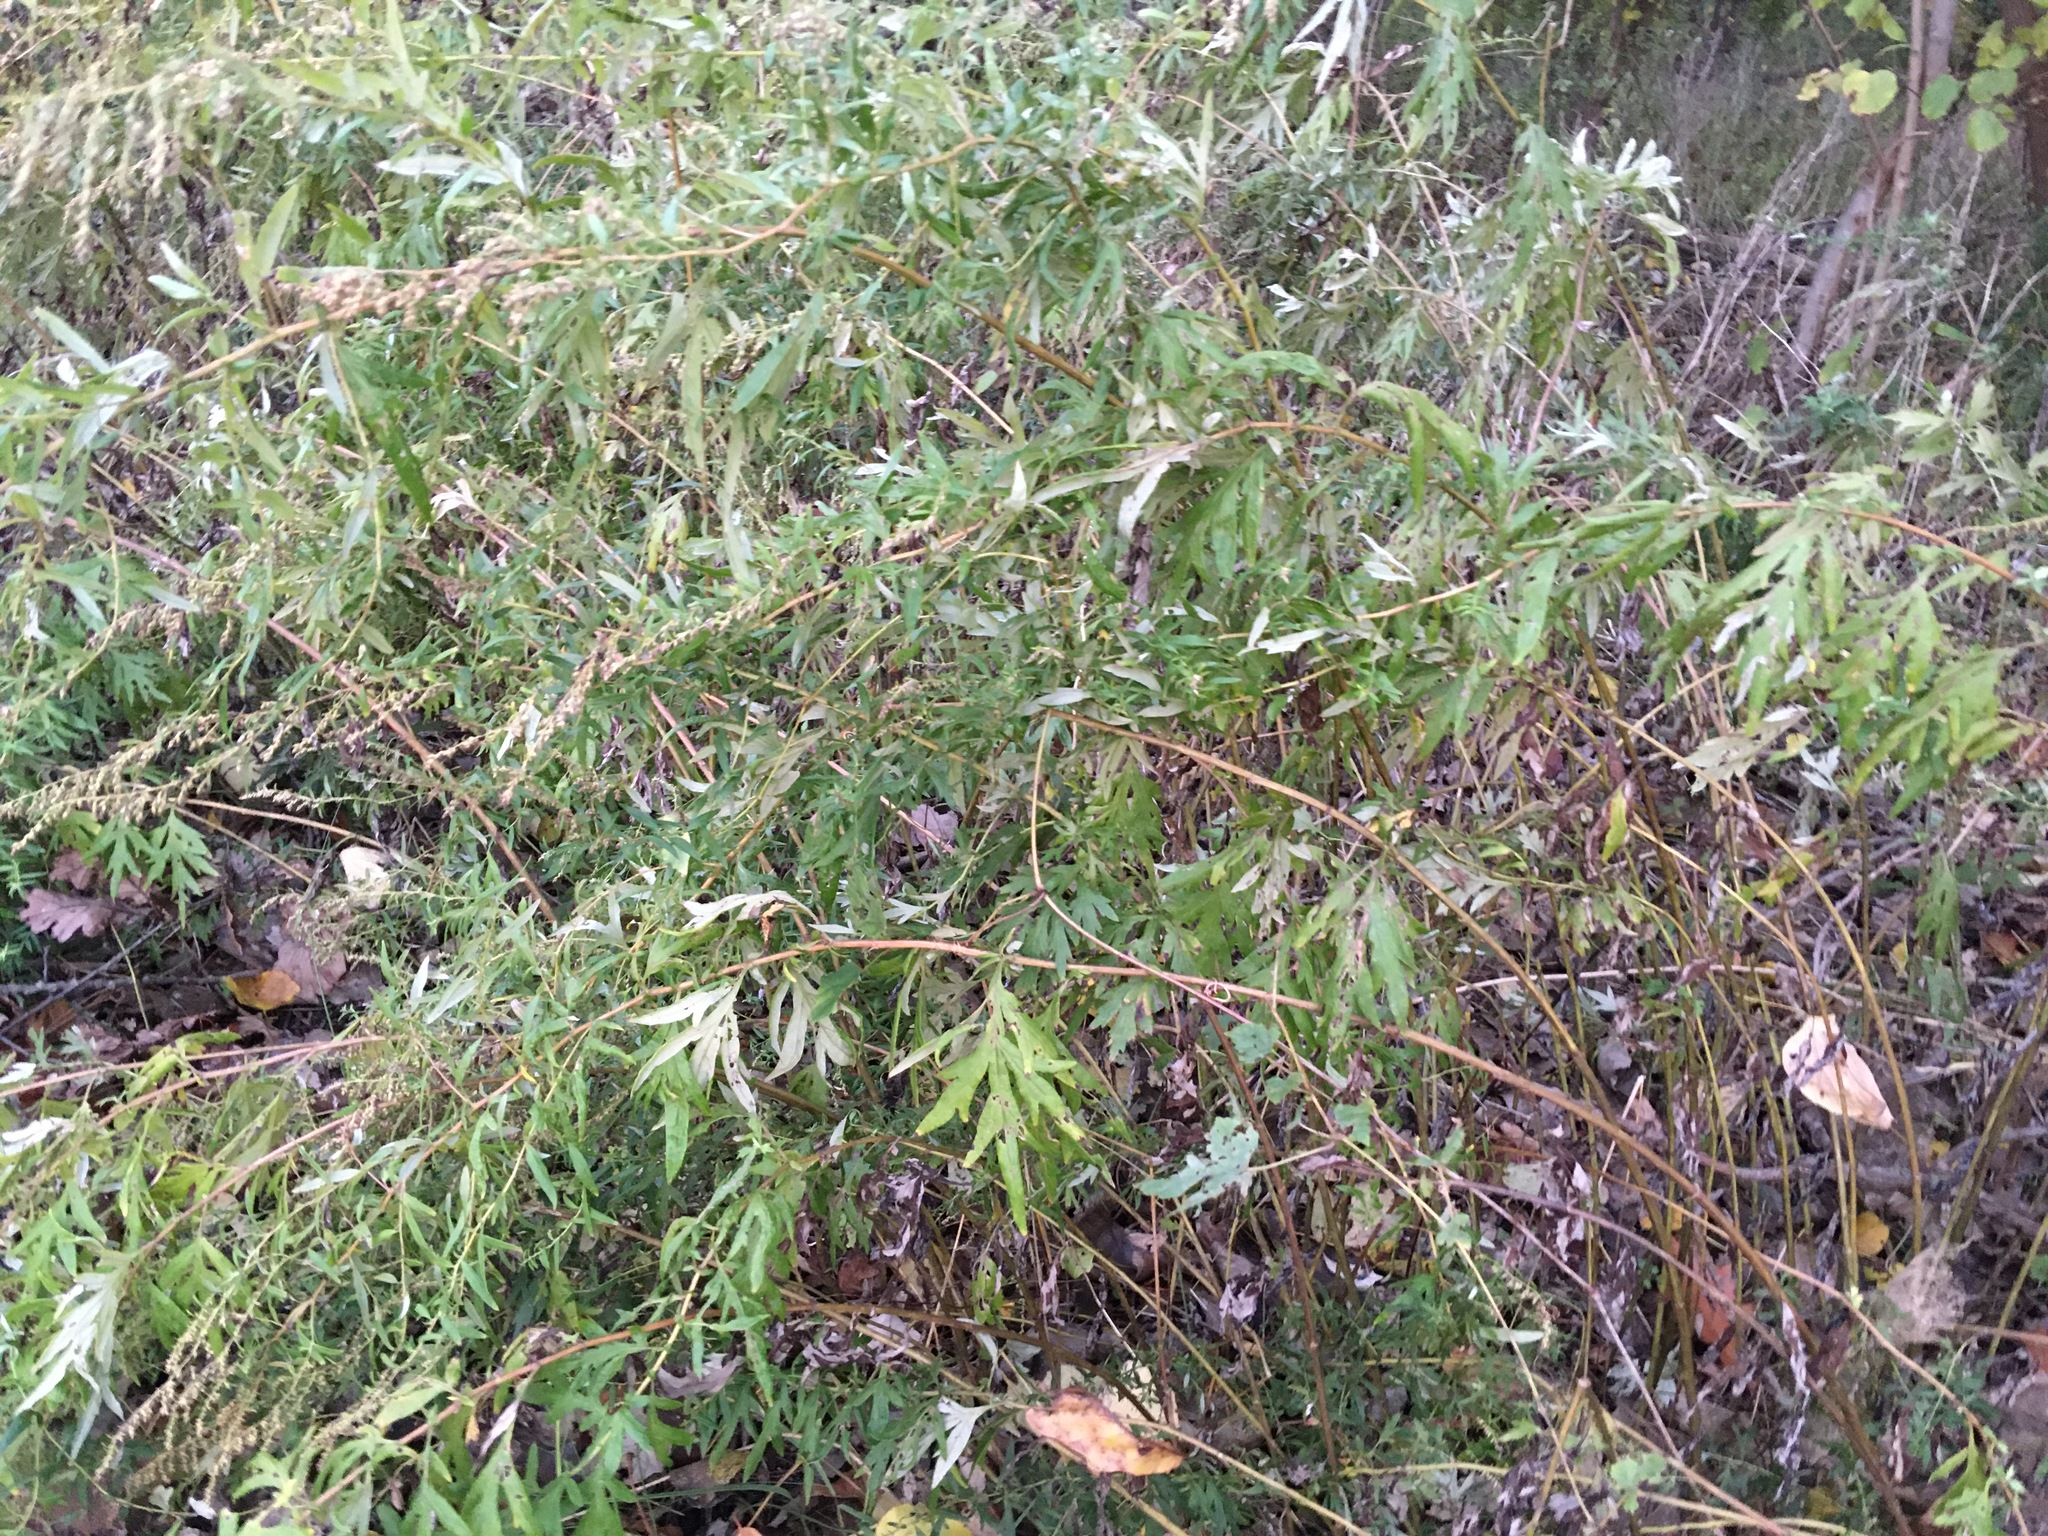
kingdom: Plantae
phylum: Tracheophyta
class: Magnoliopsida
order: Asterales
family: Asteraceae
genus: Artemisia
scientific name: Artemisia vulgaris
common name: Mugwort
